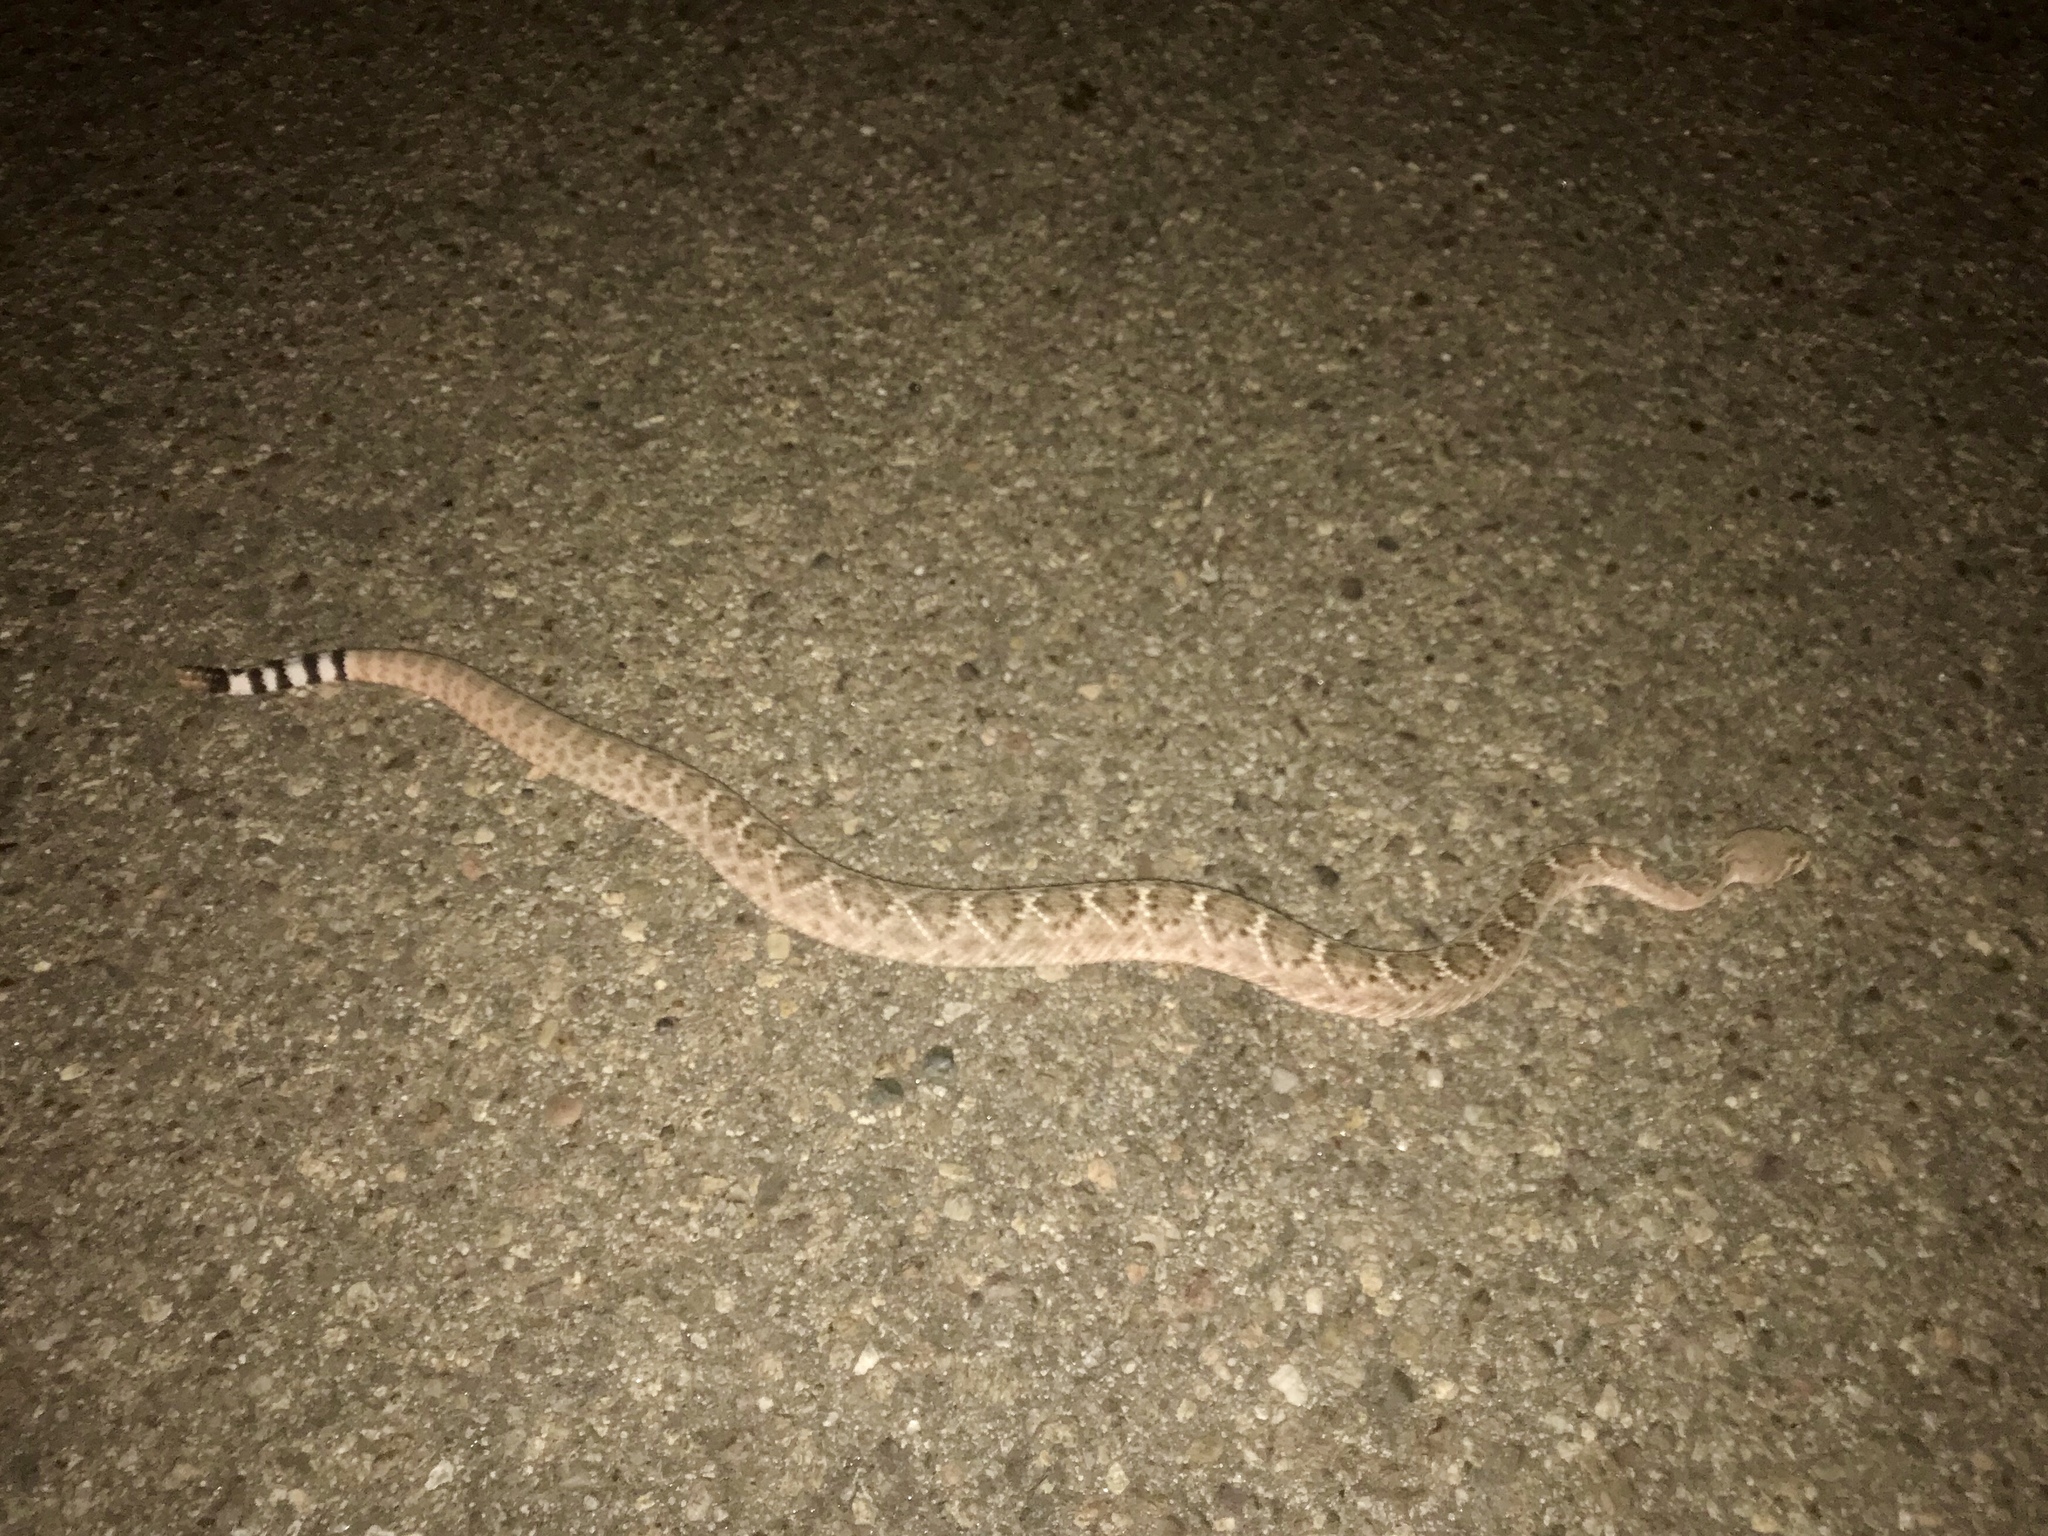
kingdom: Animalia
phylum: Chordata
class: Squamata
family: Viperidae
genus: Crotalus
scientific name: Crotalus atrox
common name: Western diamond-backed rattlesnake
